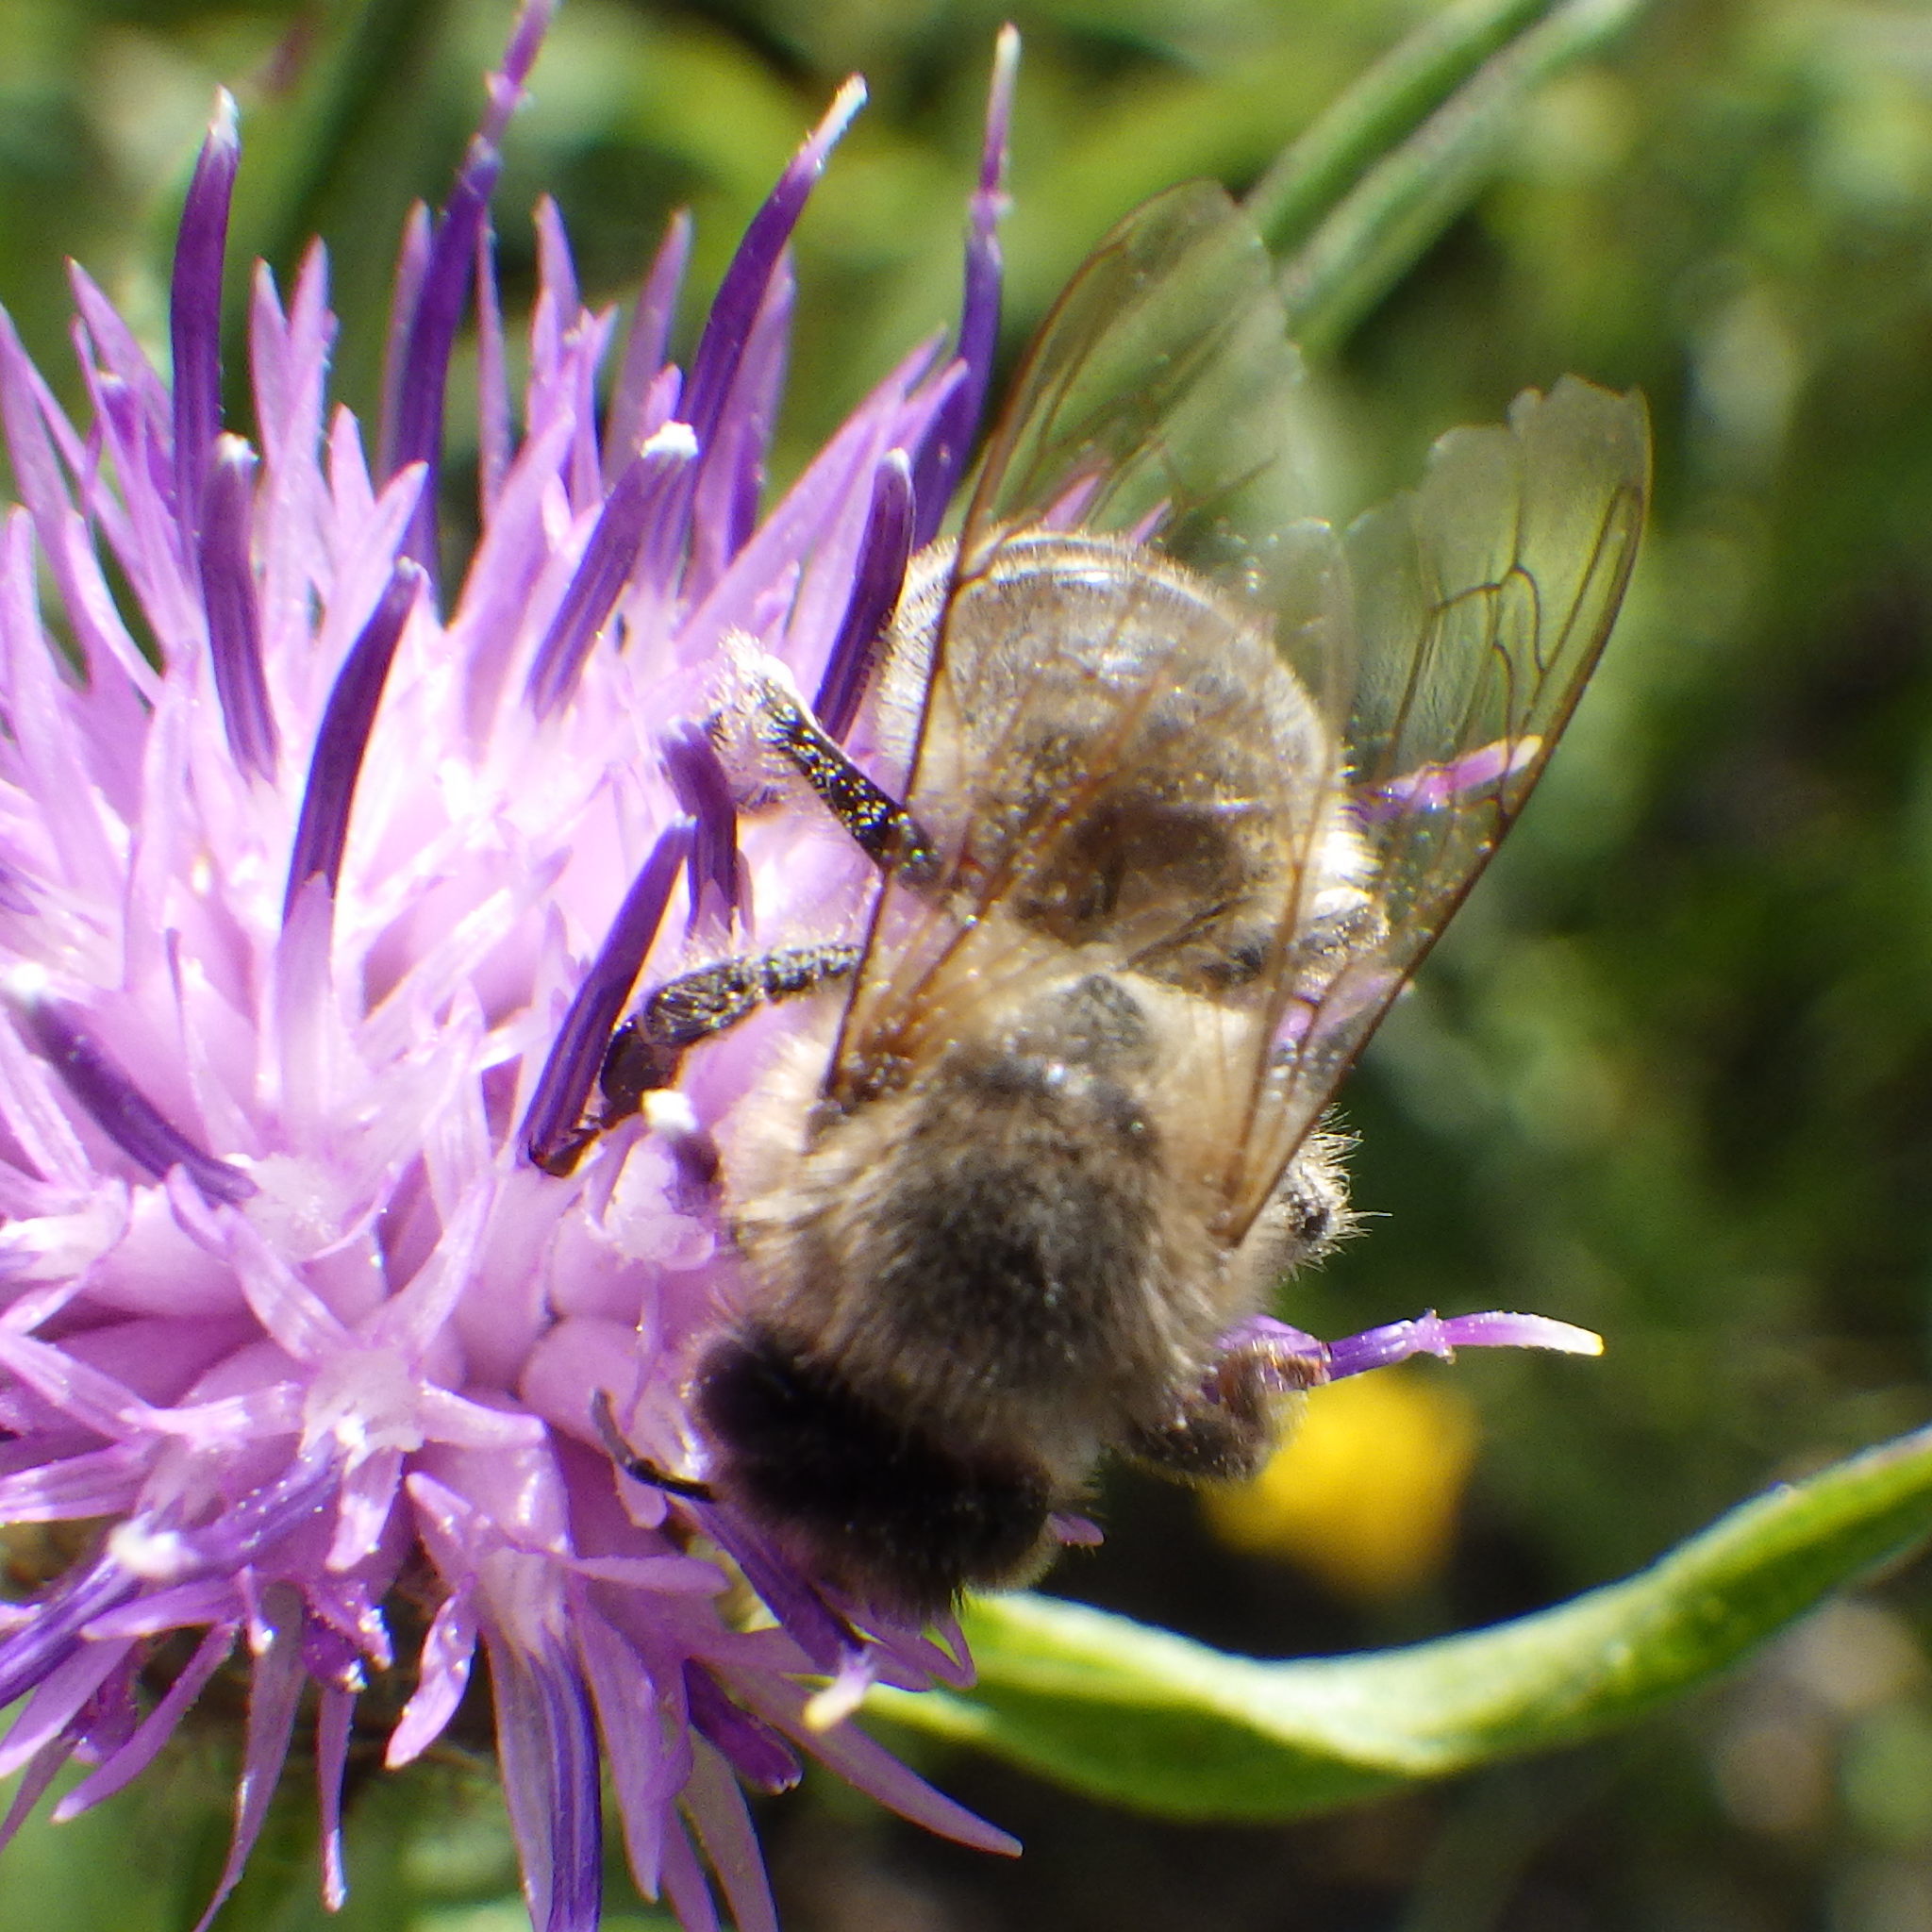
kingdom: Animalia
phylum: Arthropoda
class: Insecta
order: Hymenoptera
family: Apidae
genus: Apis
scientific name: Apis mellifera
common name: Honey bee
